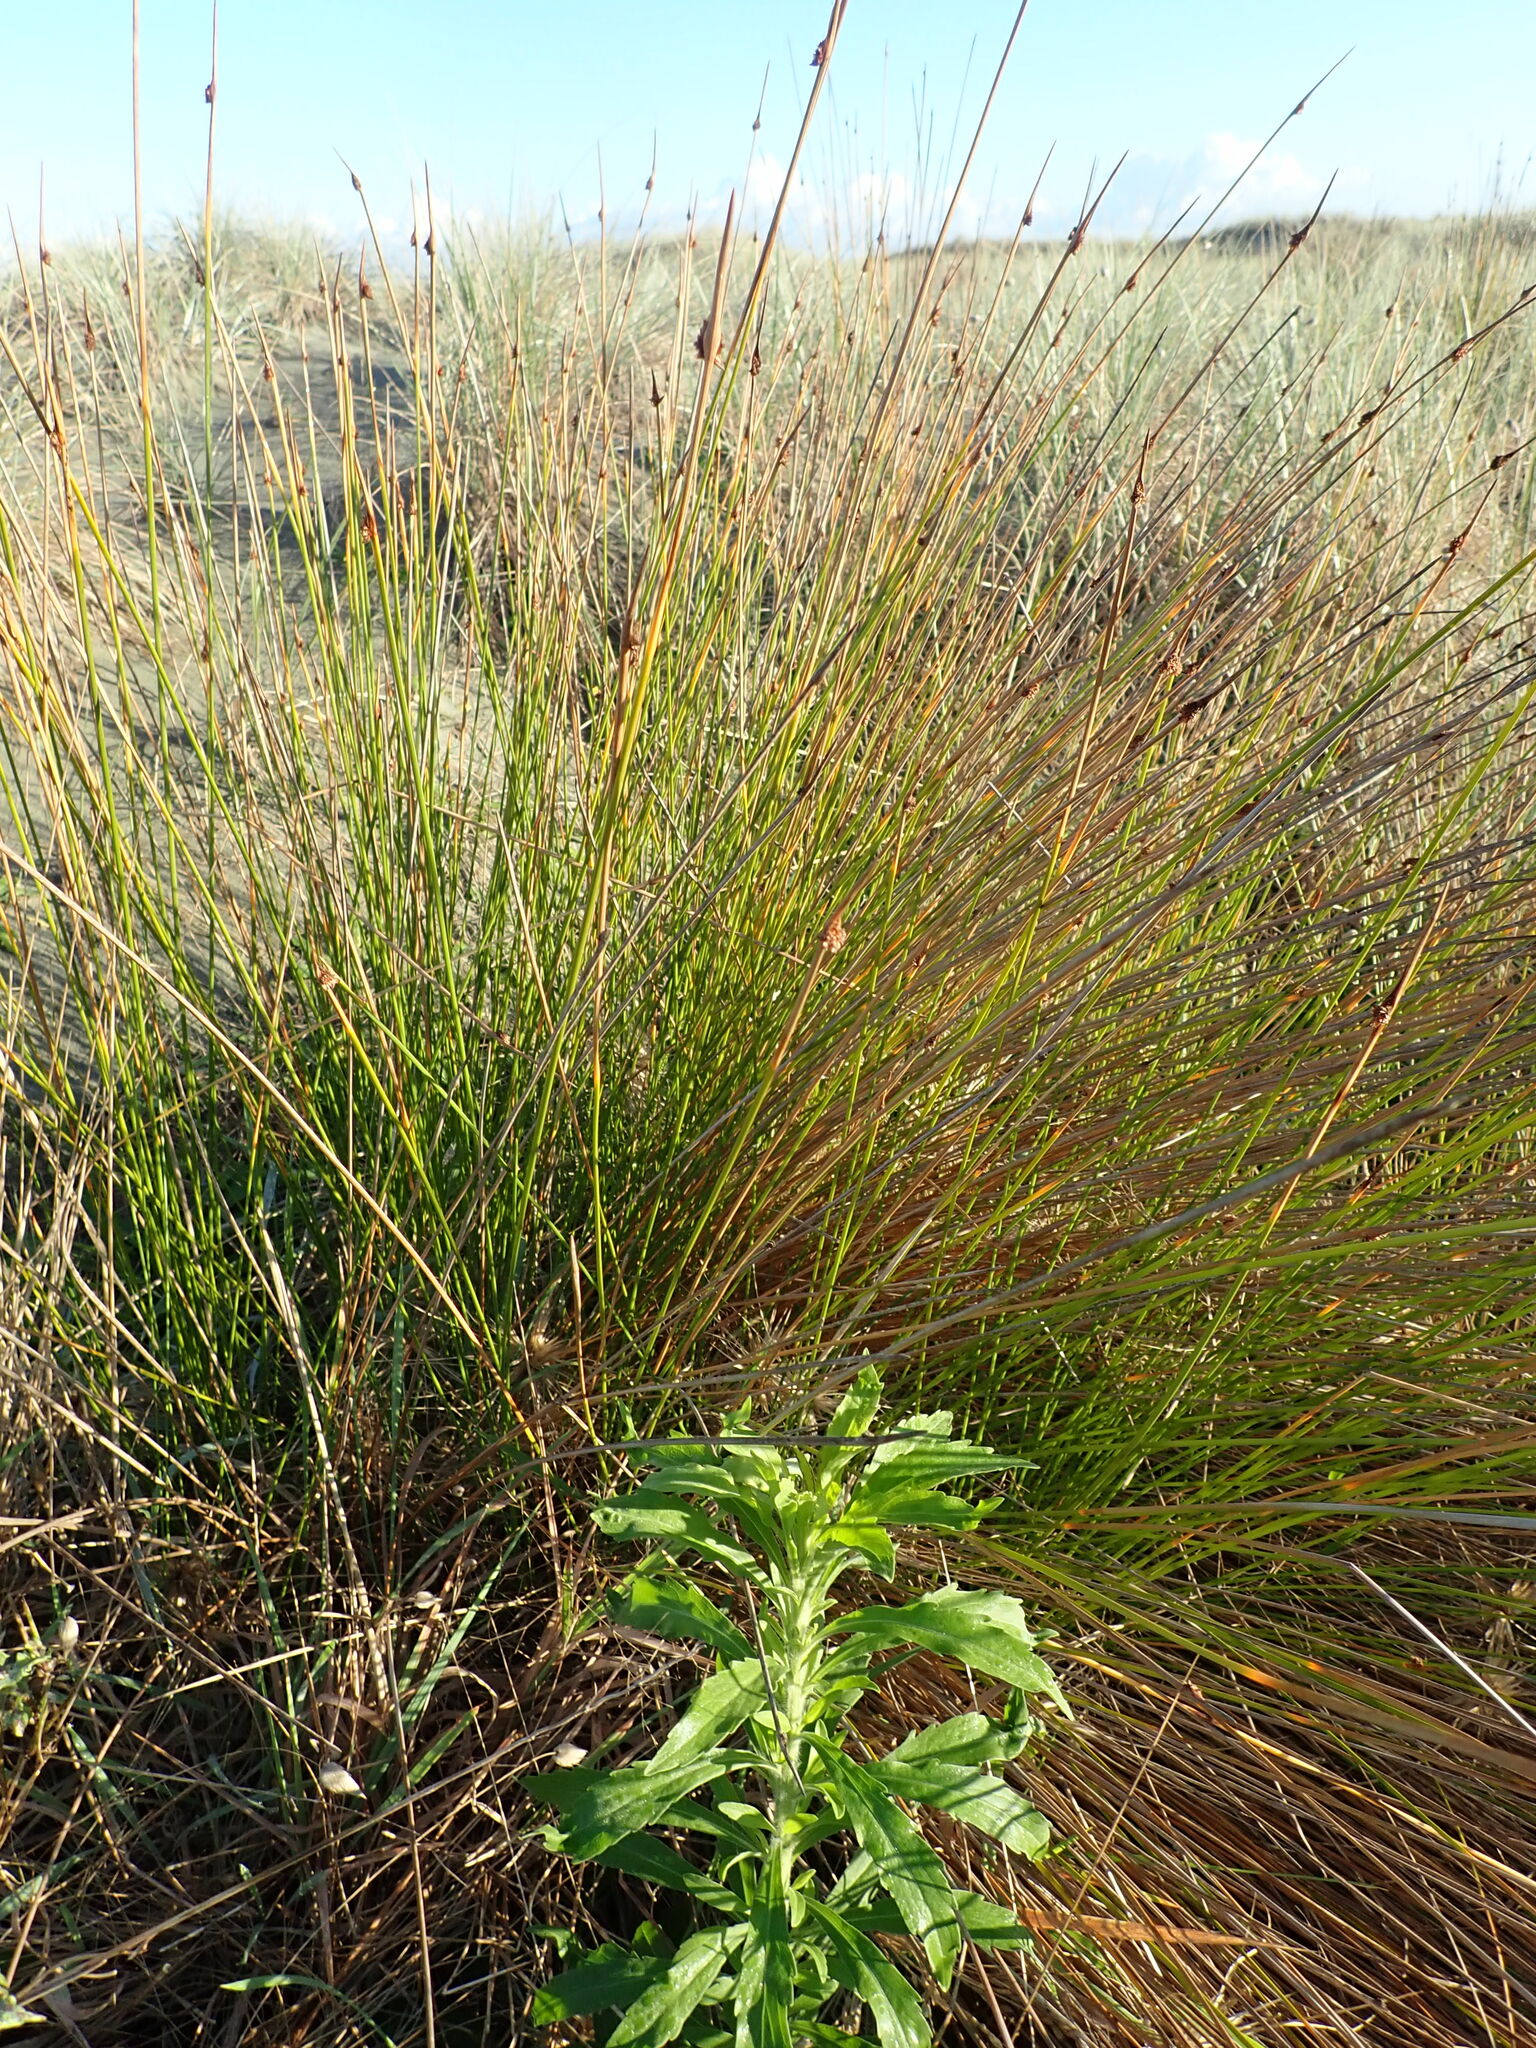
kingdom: Plantae
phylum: Tracheophyta
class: Liliopsida
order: Poales
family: Cyperaceae
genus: Ficinia
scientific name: Ficinia nodosa
